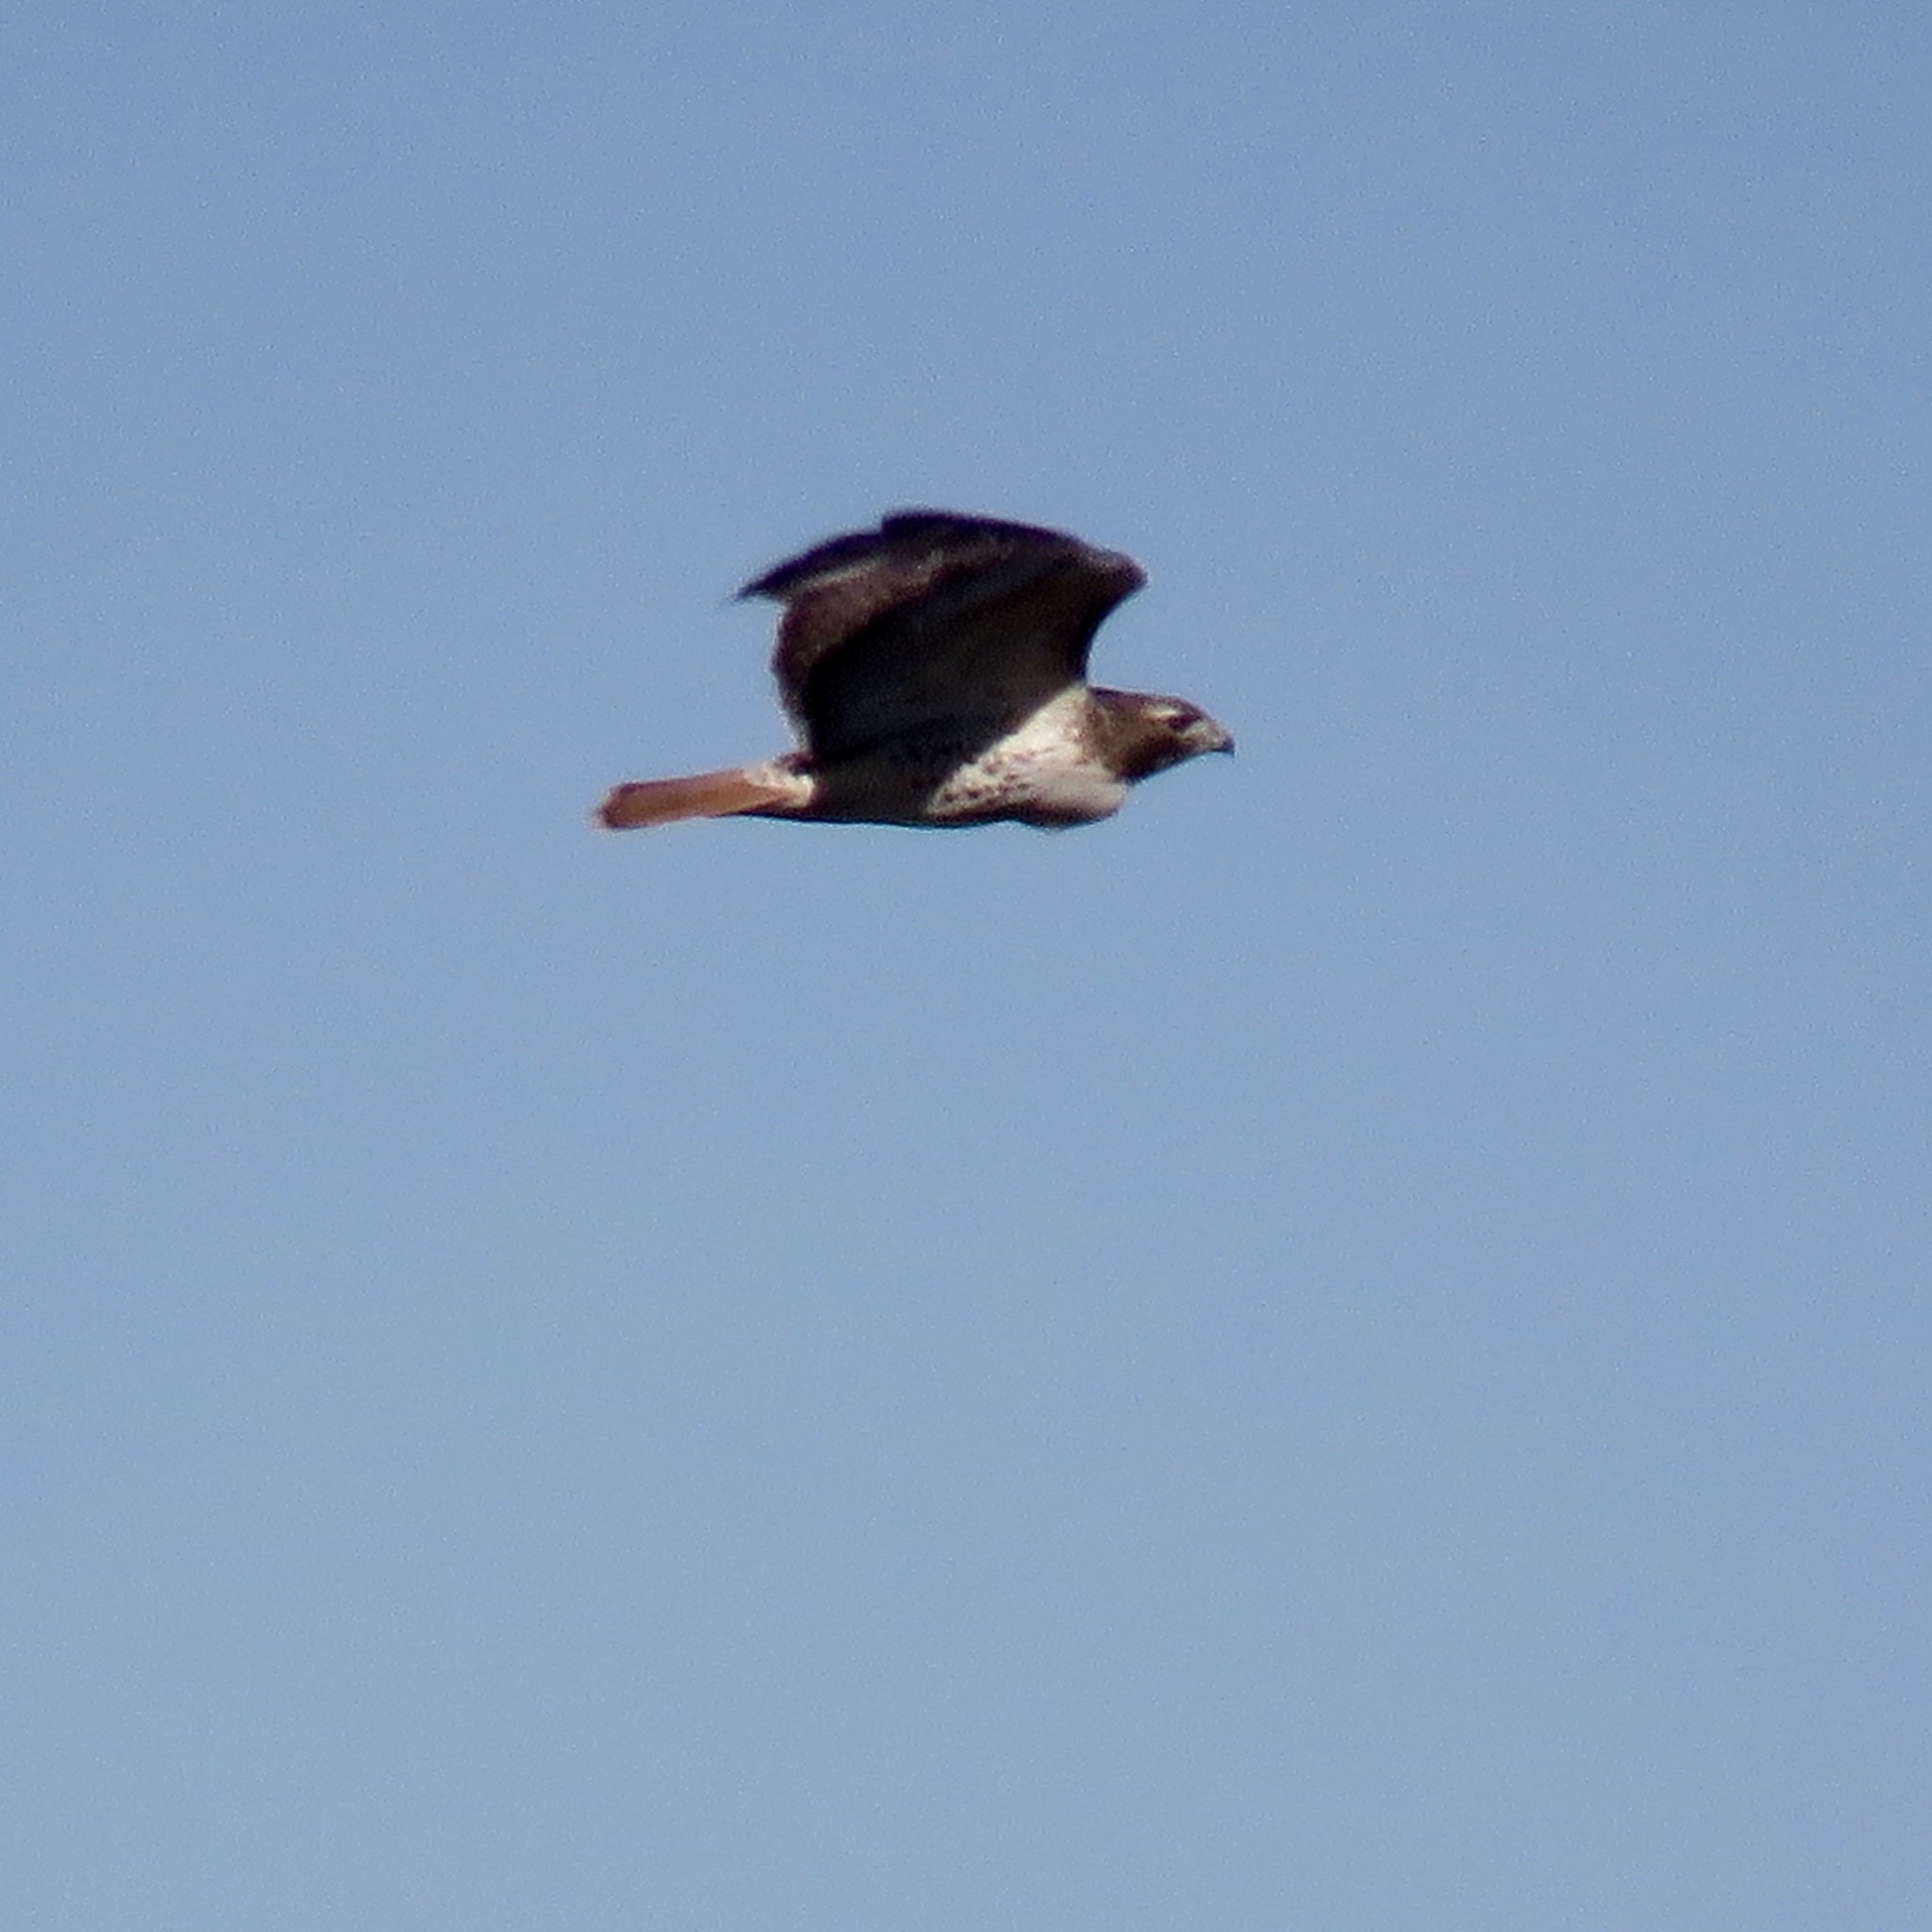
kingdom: Animalia
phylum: Chordata
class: Aves
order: Accipitriformes
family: Accipitridae
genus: Buteo
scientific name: Buteo jamaicensis
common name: Red-tailed hawk
